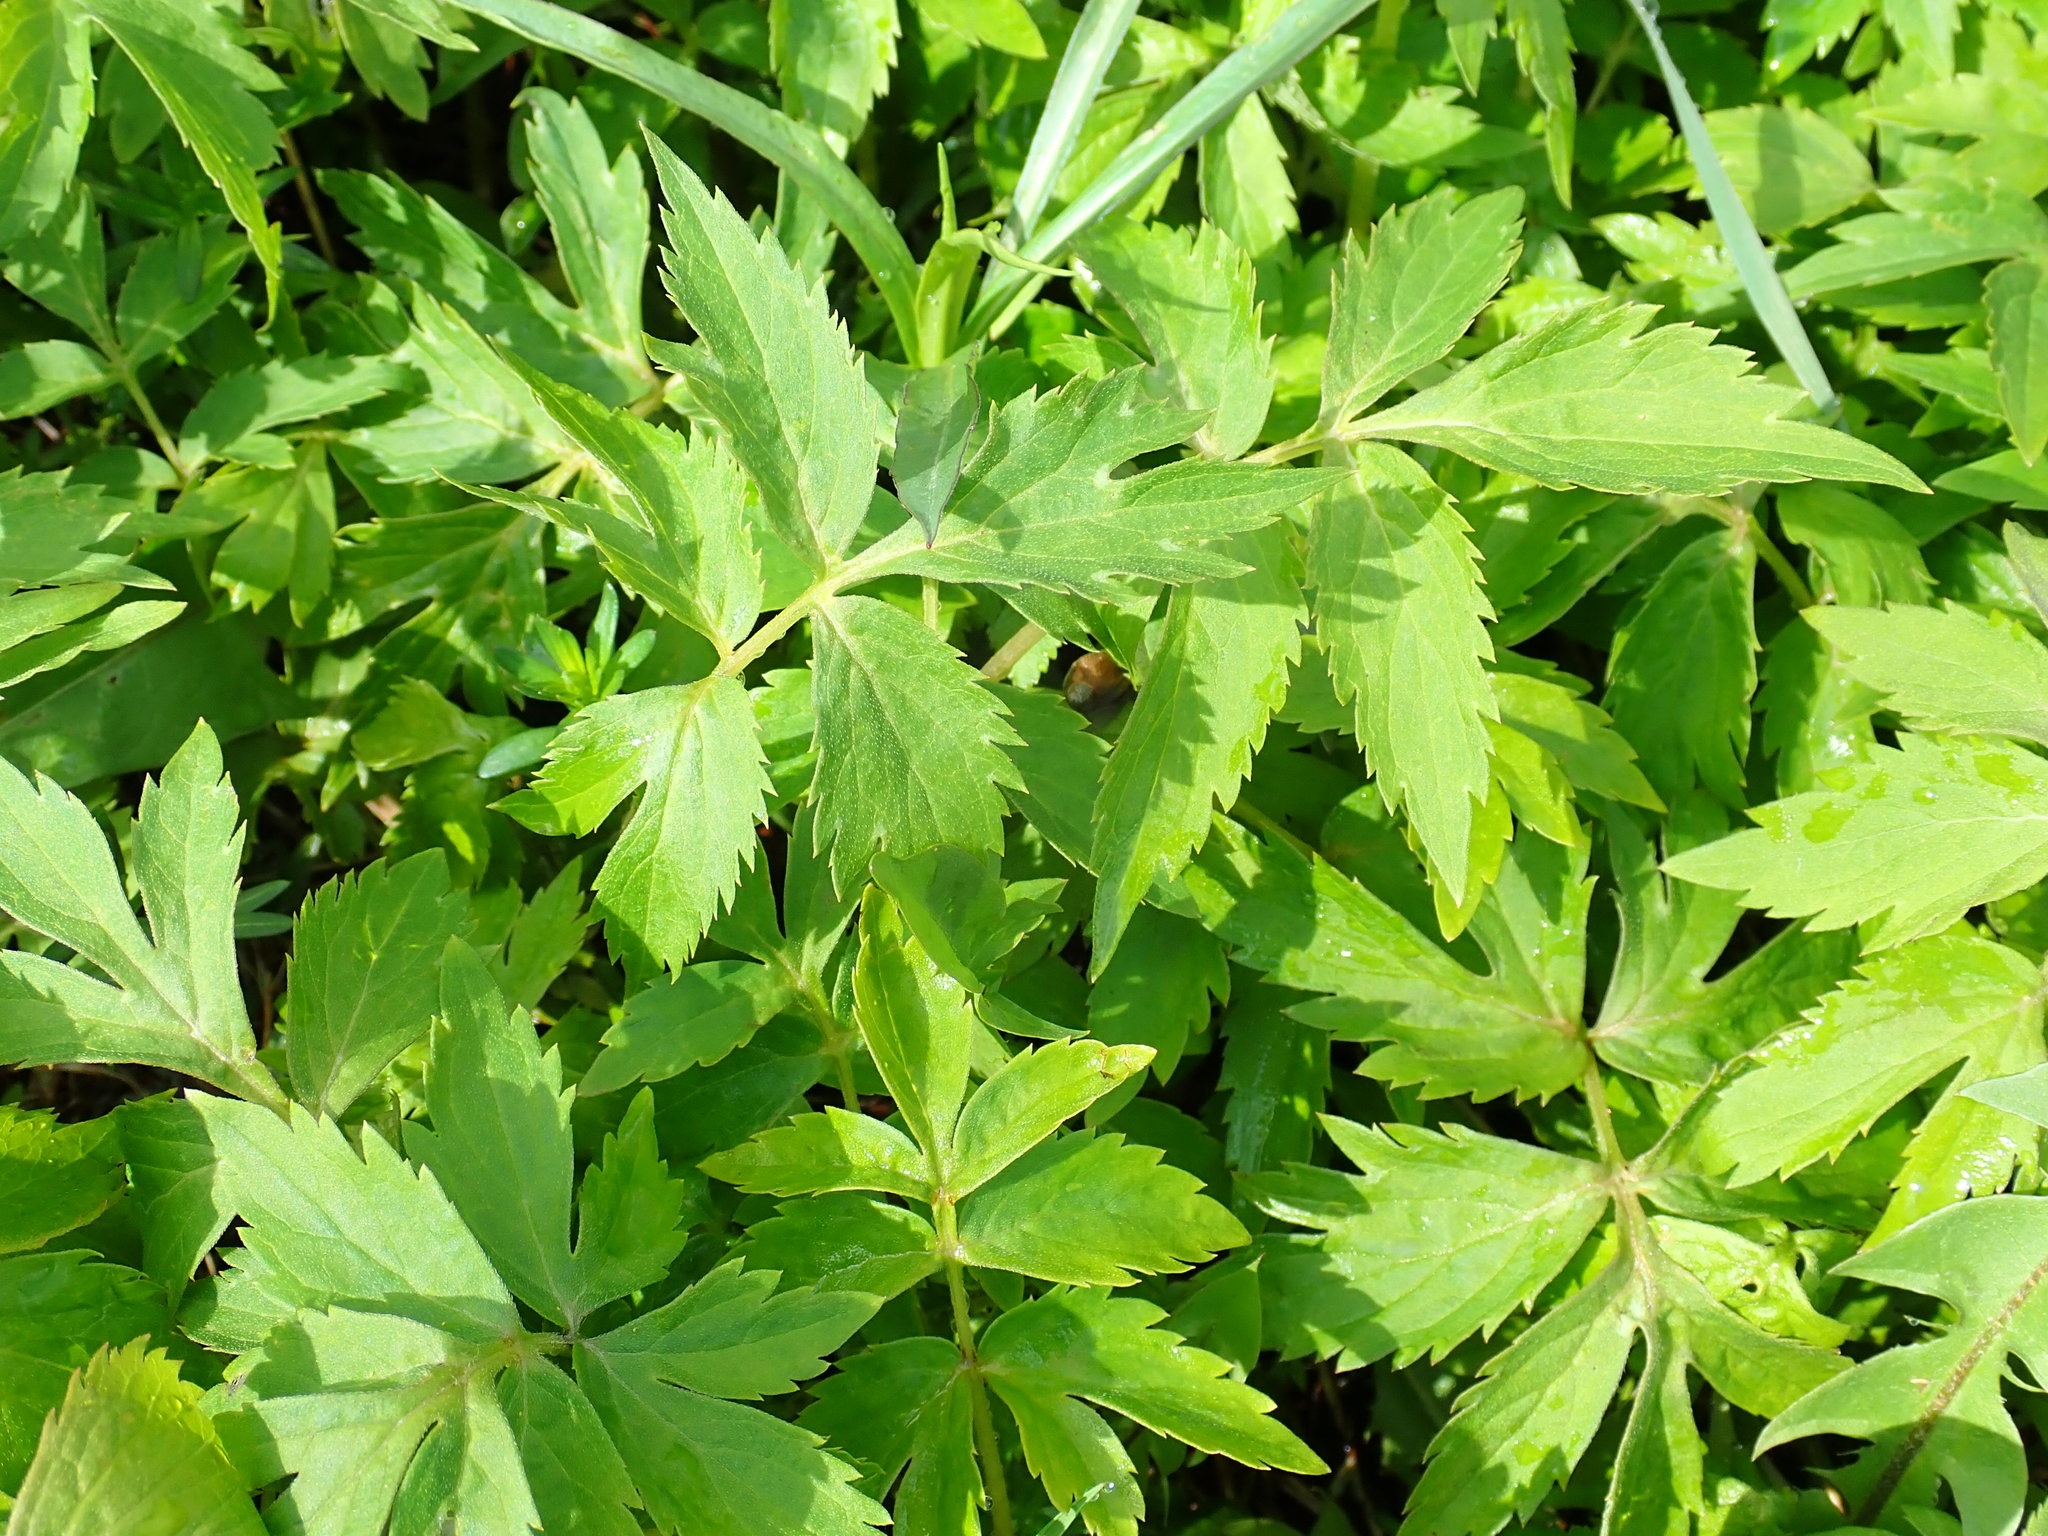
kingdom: Plantae
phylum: Tracheophyta
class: Magnoliopsida
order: Boraginales
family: Hydrophyllaceae
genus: Hydrophyllum
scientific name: Hydrophyllum virginianum
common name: Virginia waterleaf
